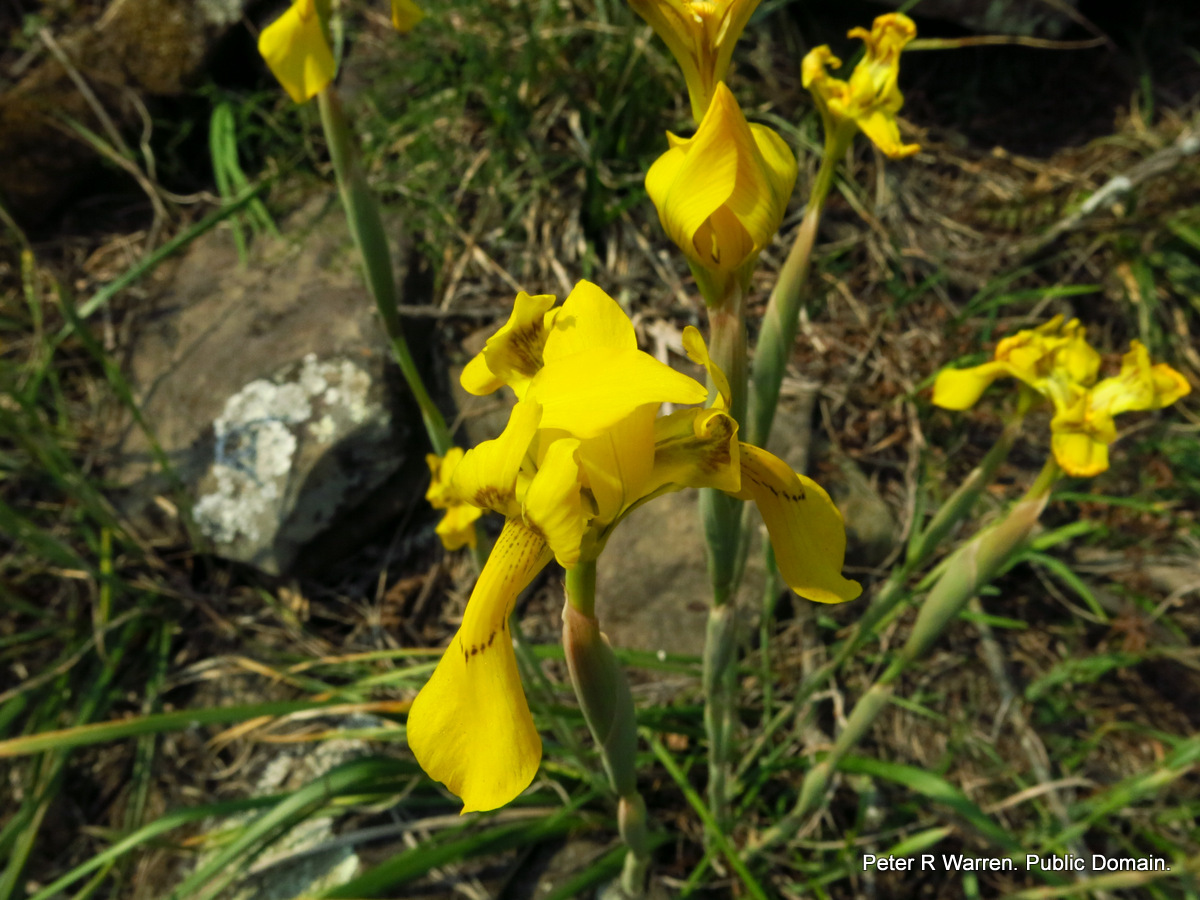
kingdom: Plantae
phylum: Tracheophyta
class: Liliopsida
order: Asparagales
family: Iridaceae
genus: Moraea
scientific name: Moraea huttonii
